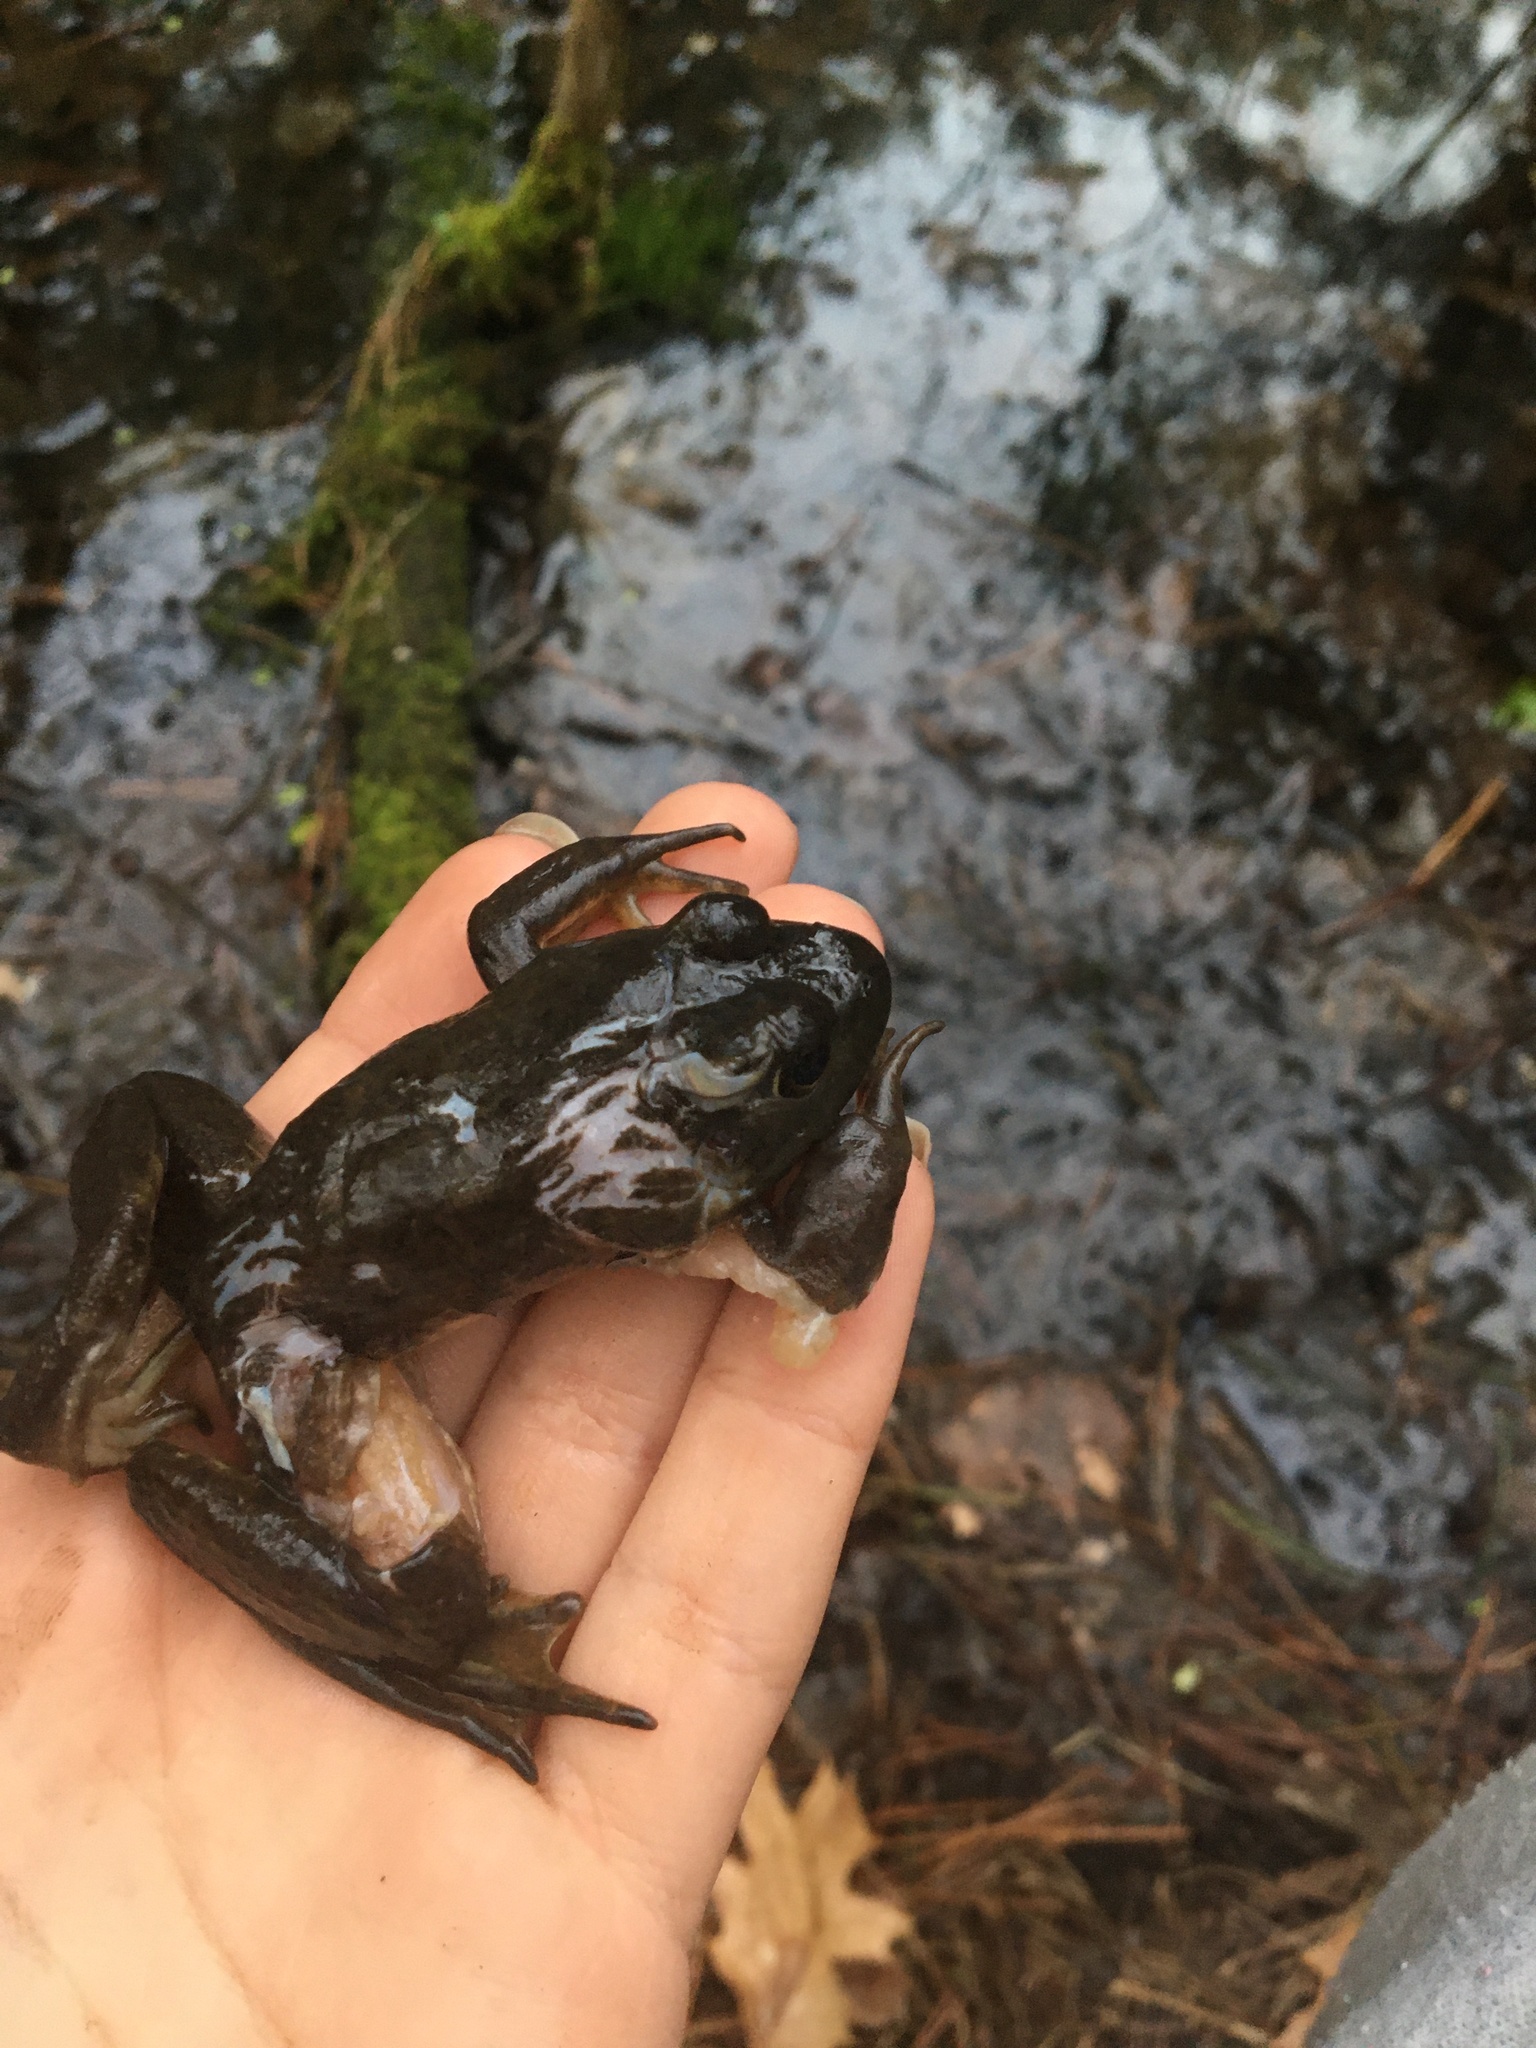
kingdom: Animalia
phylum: Chordata
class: Amphibia
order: Anura
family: Ranidae
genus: Lithobates
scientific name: Lithobates catesbeianus
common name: American bullfrog
